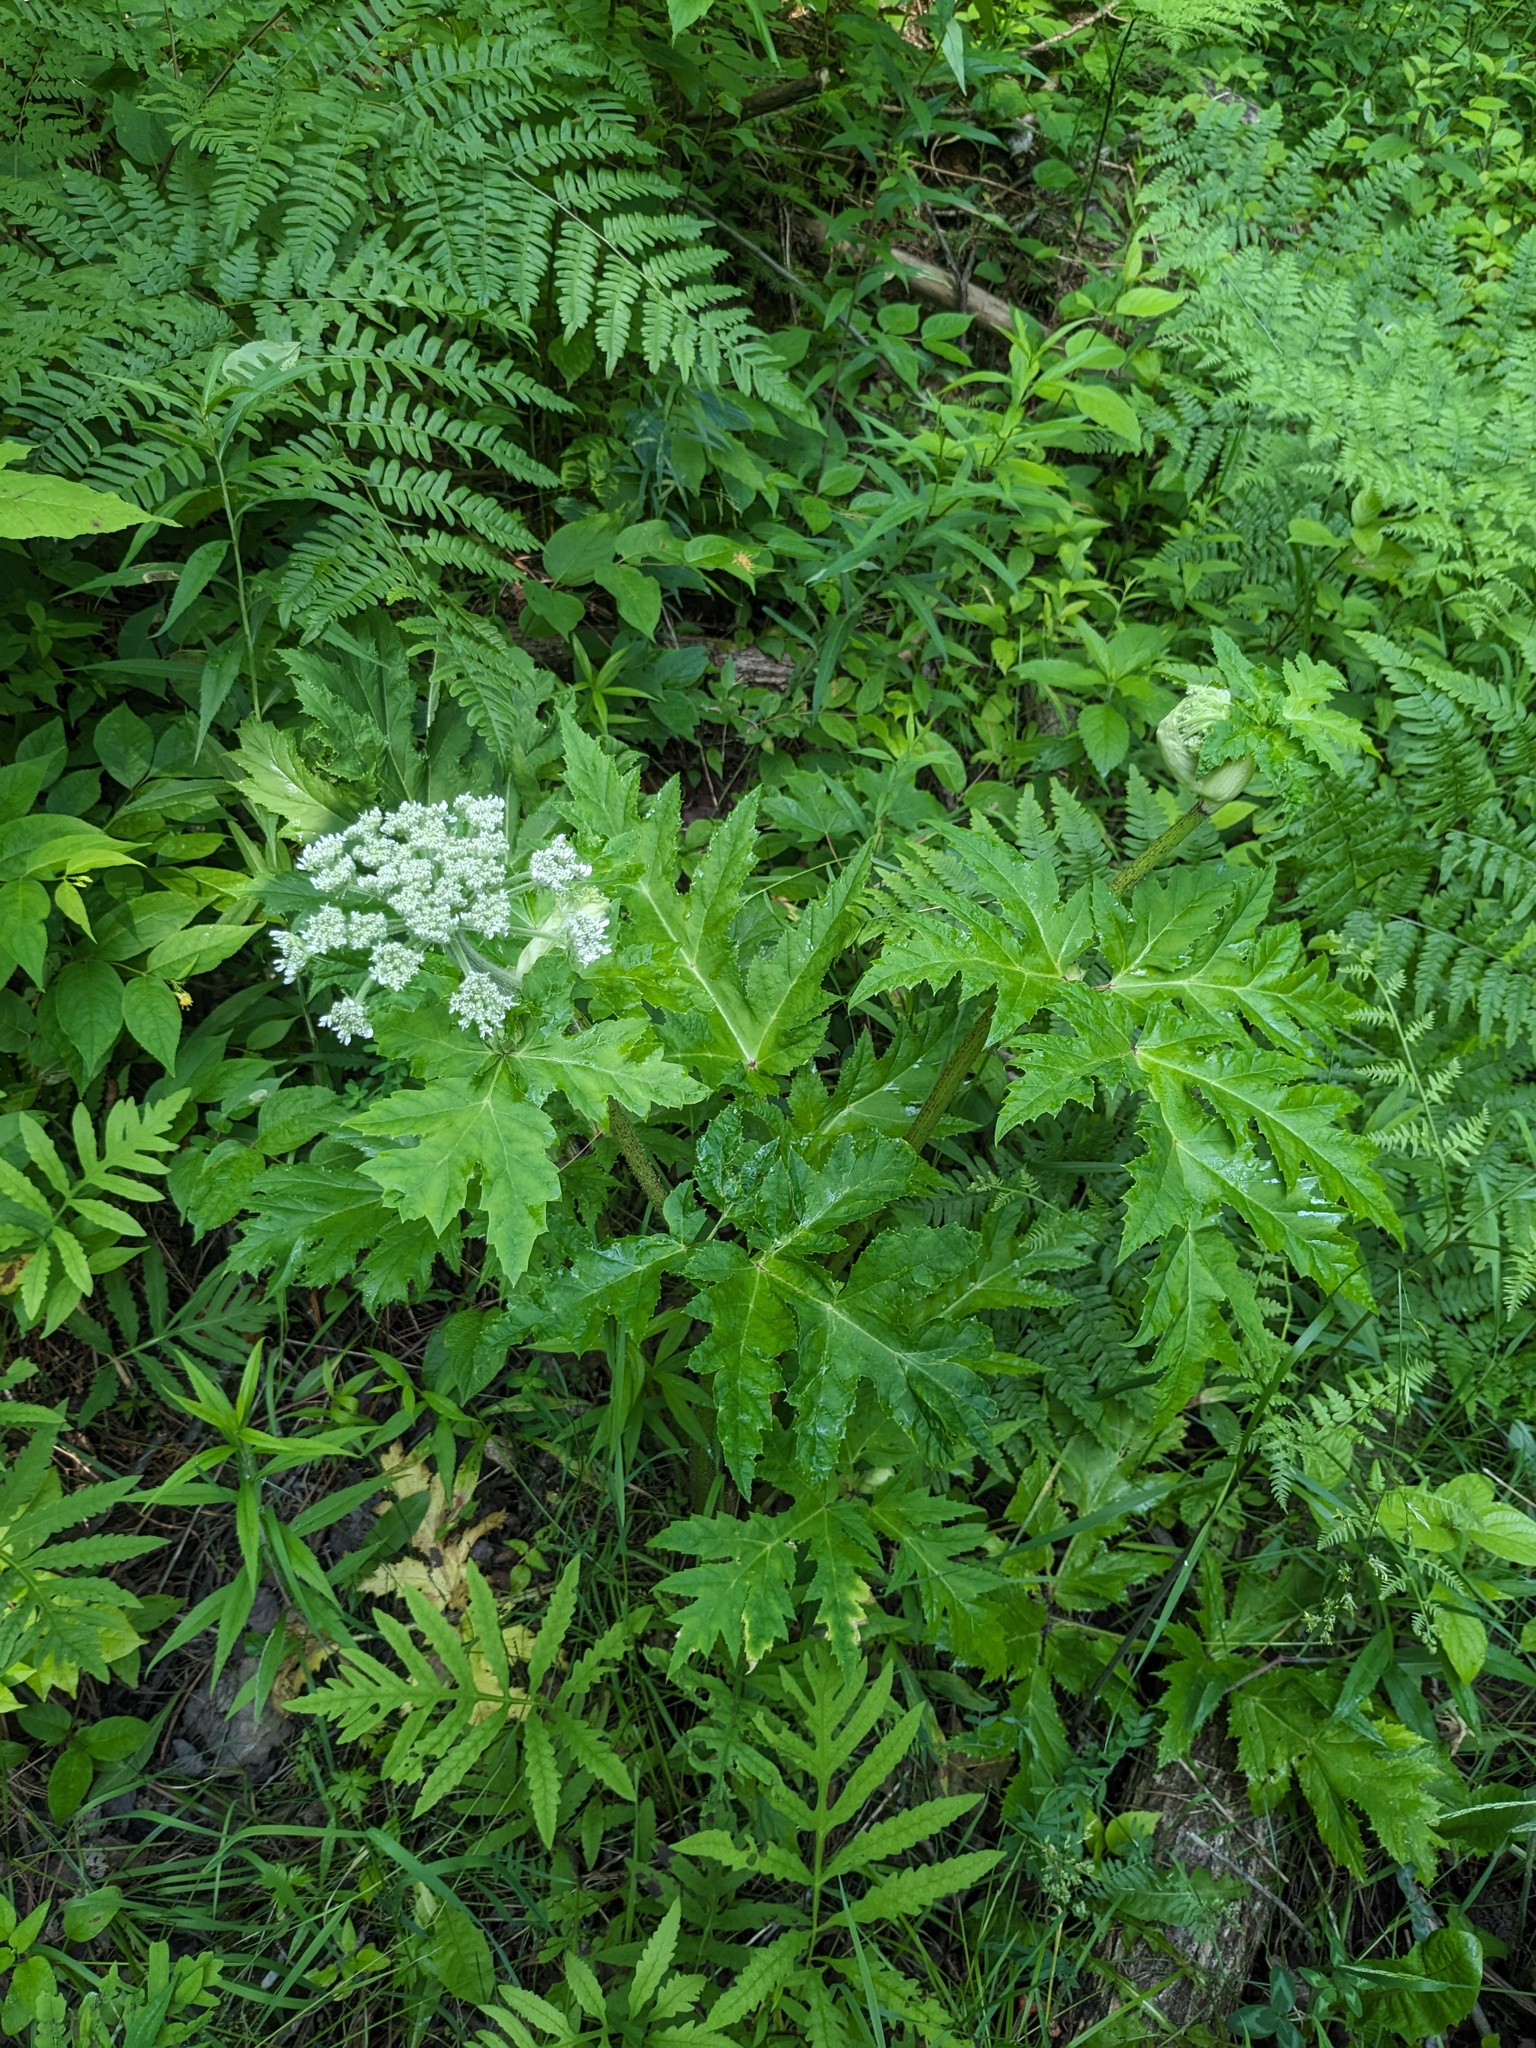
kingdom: Plantae
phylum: Tracheophyta
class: Magnoliopsida
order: Apiales
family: Apiaceae
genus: Heracleum
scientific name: Heracleum mantegazzianum
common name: Giant hogweed
